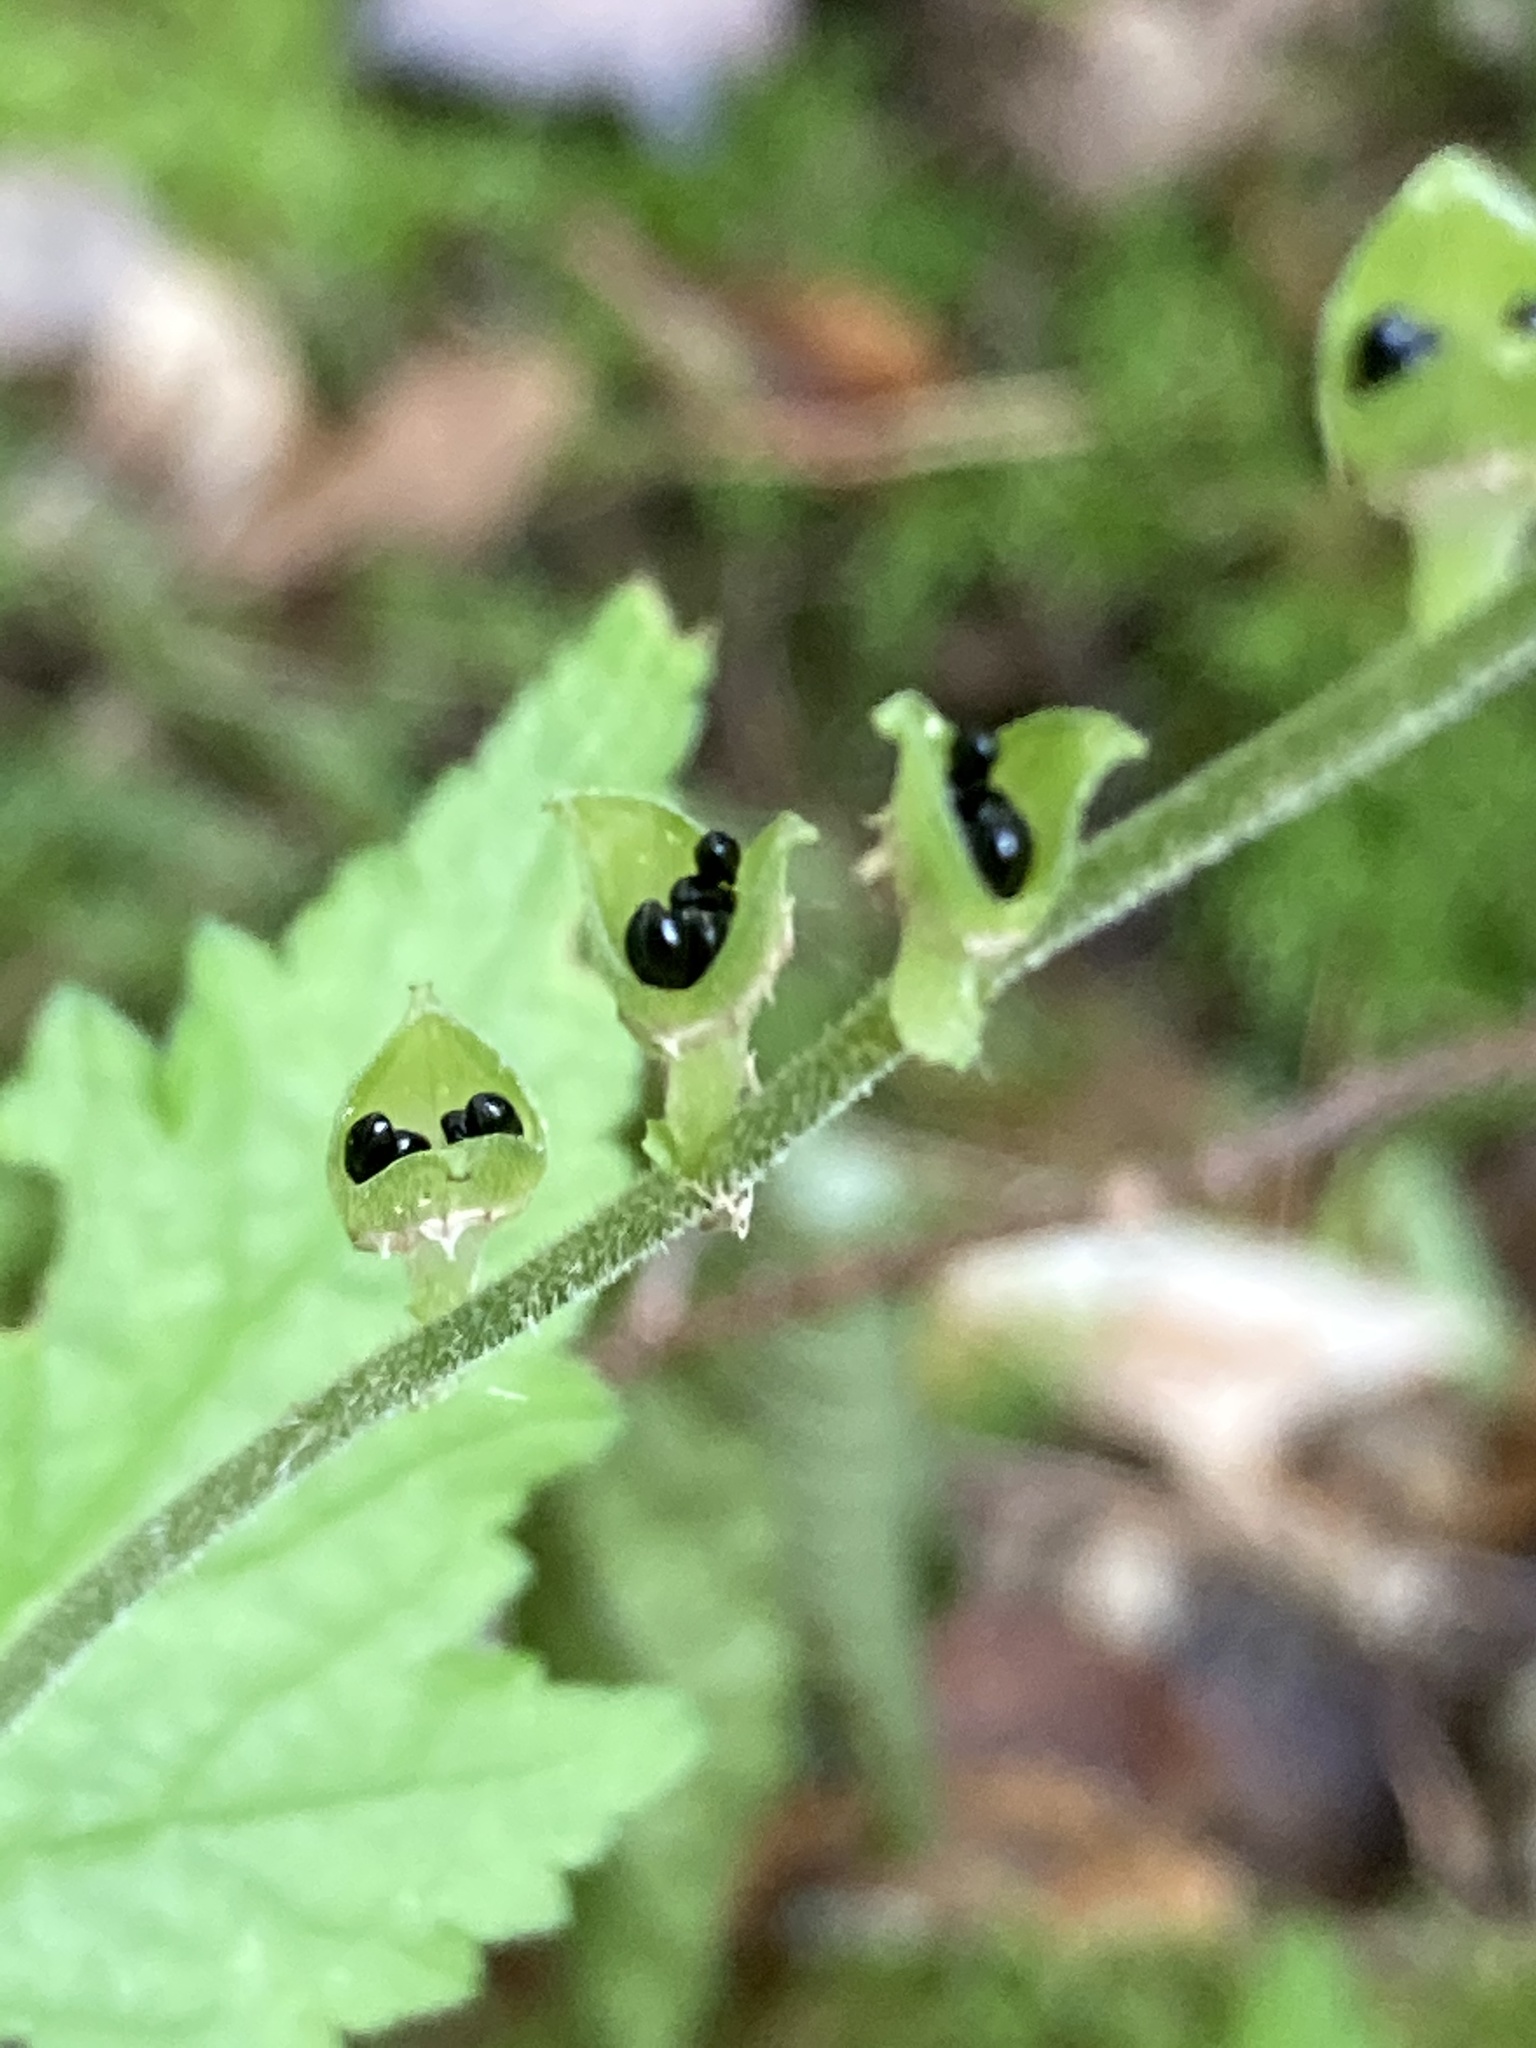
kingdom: Plantae
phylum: Tracheophyta
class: Magnoliopsida
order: Saxifragales
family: Saxifragaceae
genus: Mitella
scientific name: Mitella diphylla
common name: Coolwort
